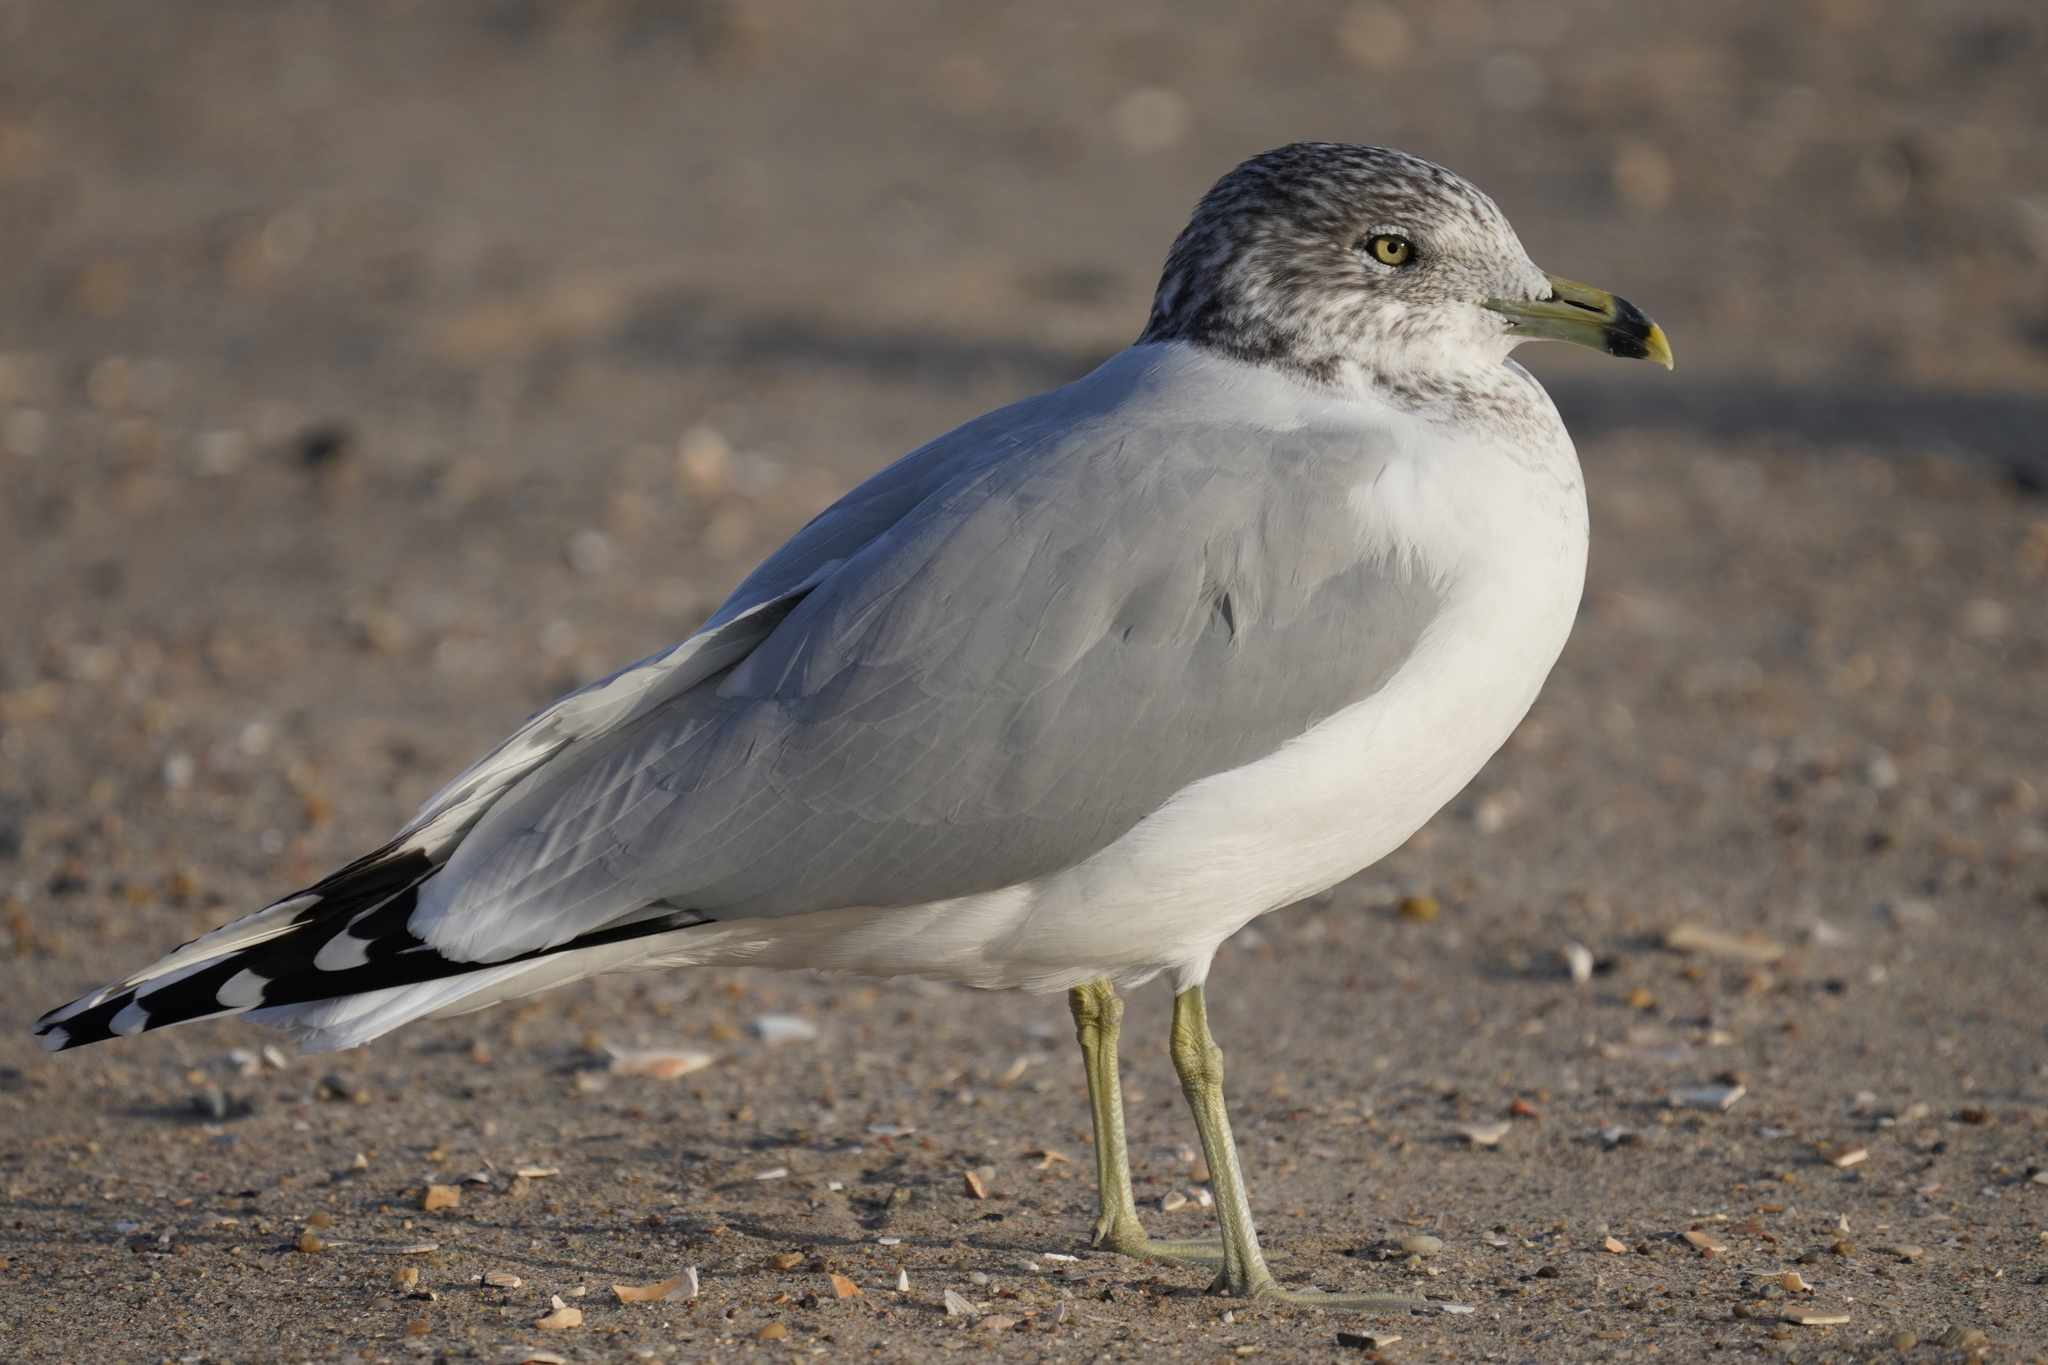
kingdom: Animalia
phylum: Chordata
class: Aves
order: Charadriiformes
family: Laridae
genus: Larus
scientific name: Larus delawarensis
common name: Ring-billed gull
